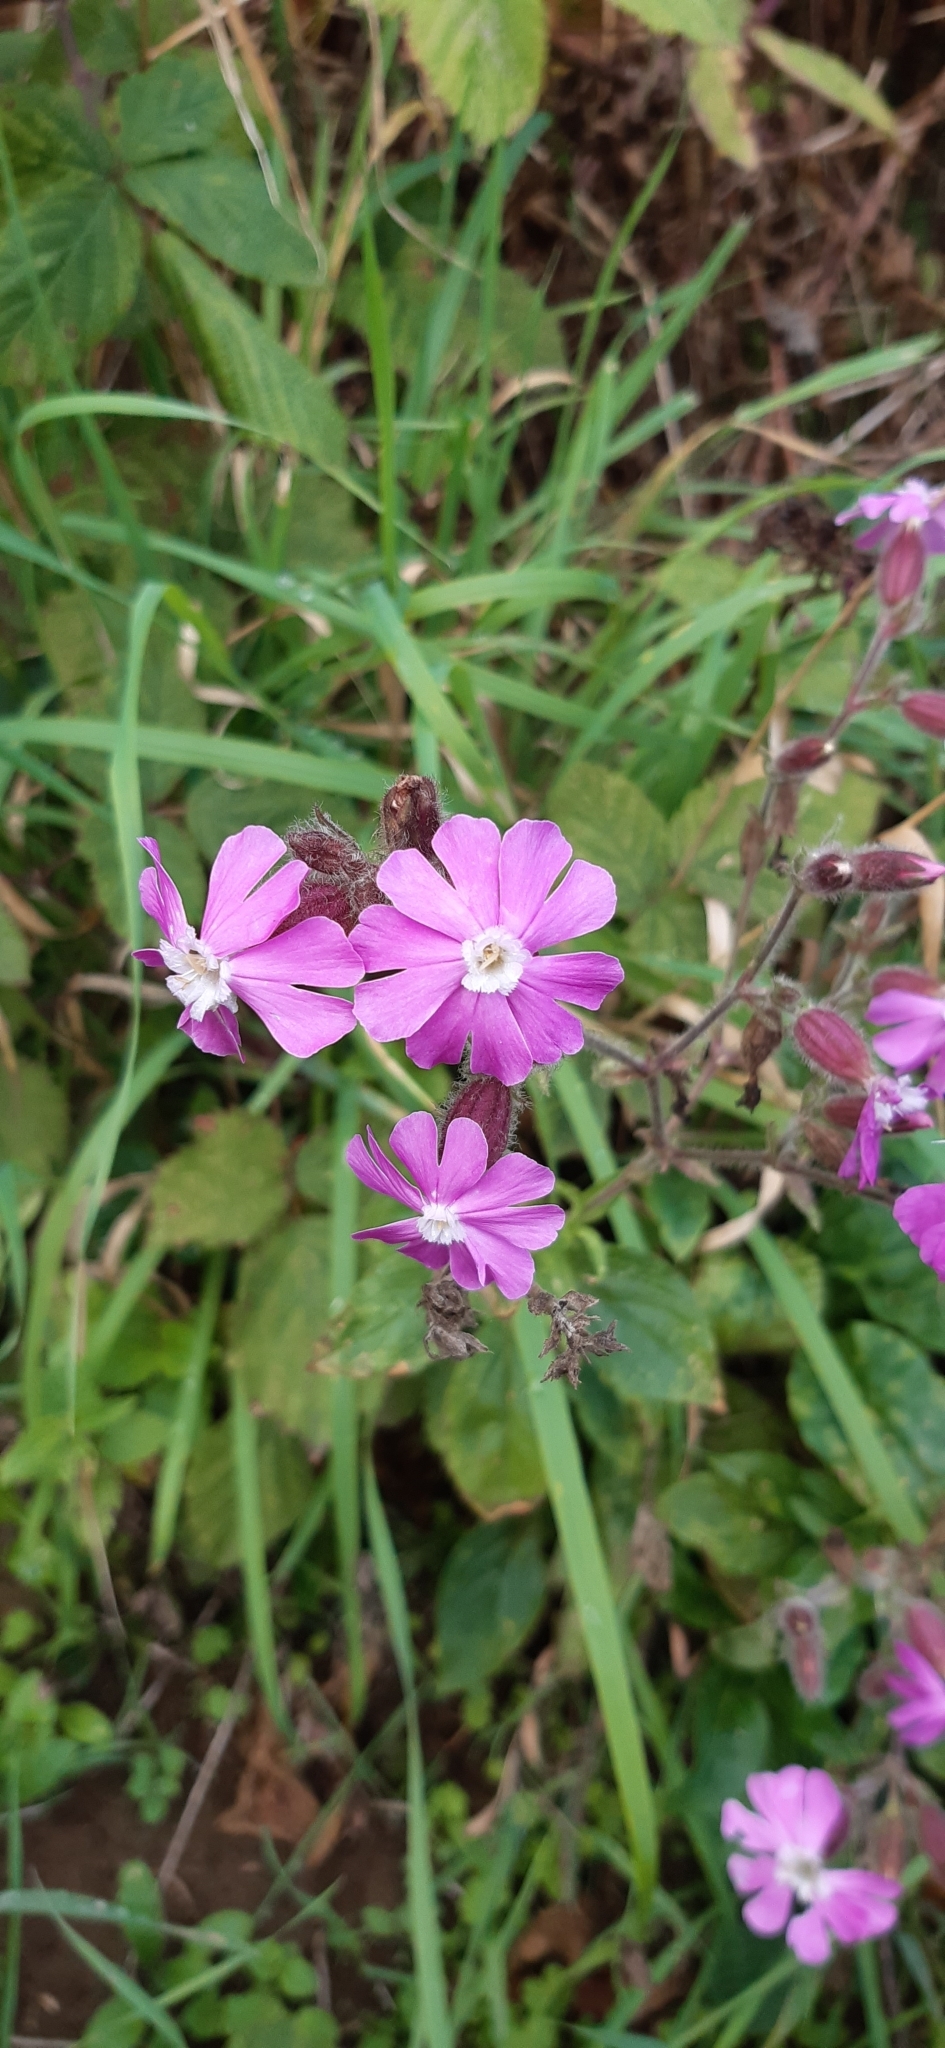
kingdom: Plantae
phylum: Tracheophyta
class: Magnoliopsida
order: Caryophyllales
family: Caryophyllaceae
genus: Silene
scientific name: Silene dioica
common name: Red campion
